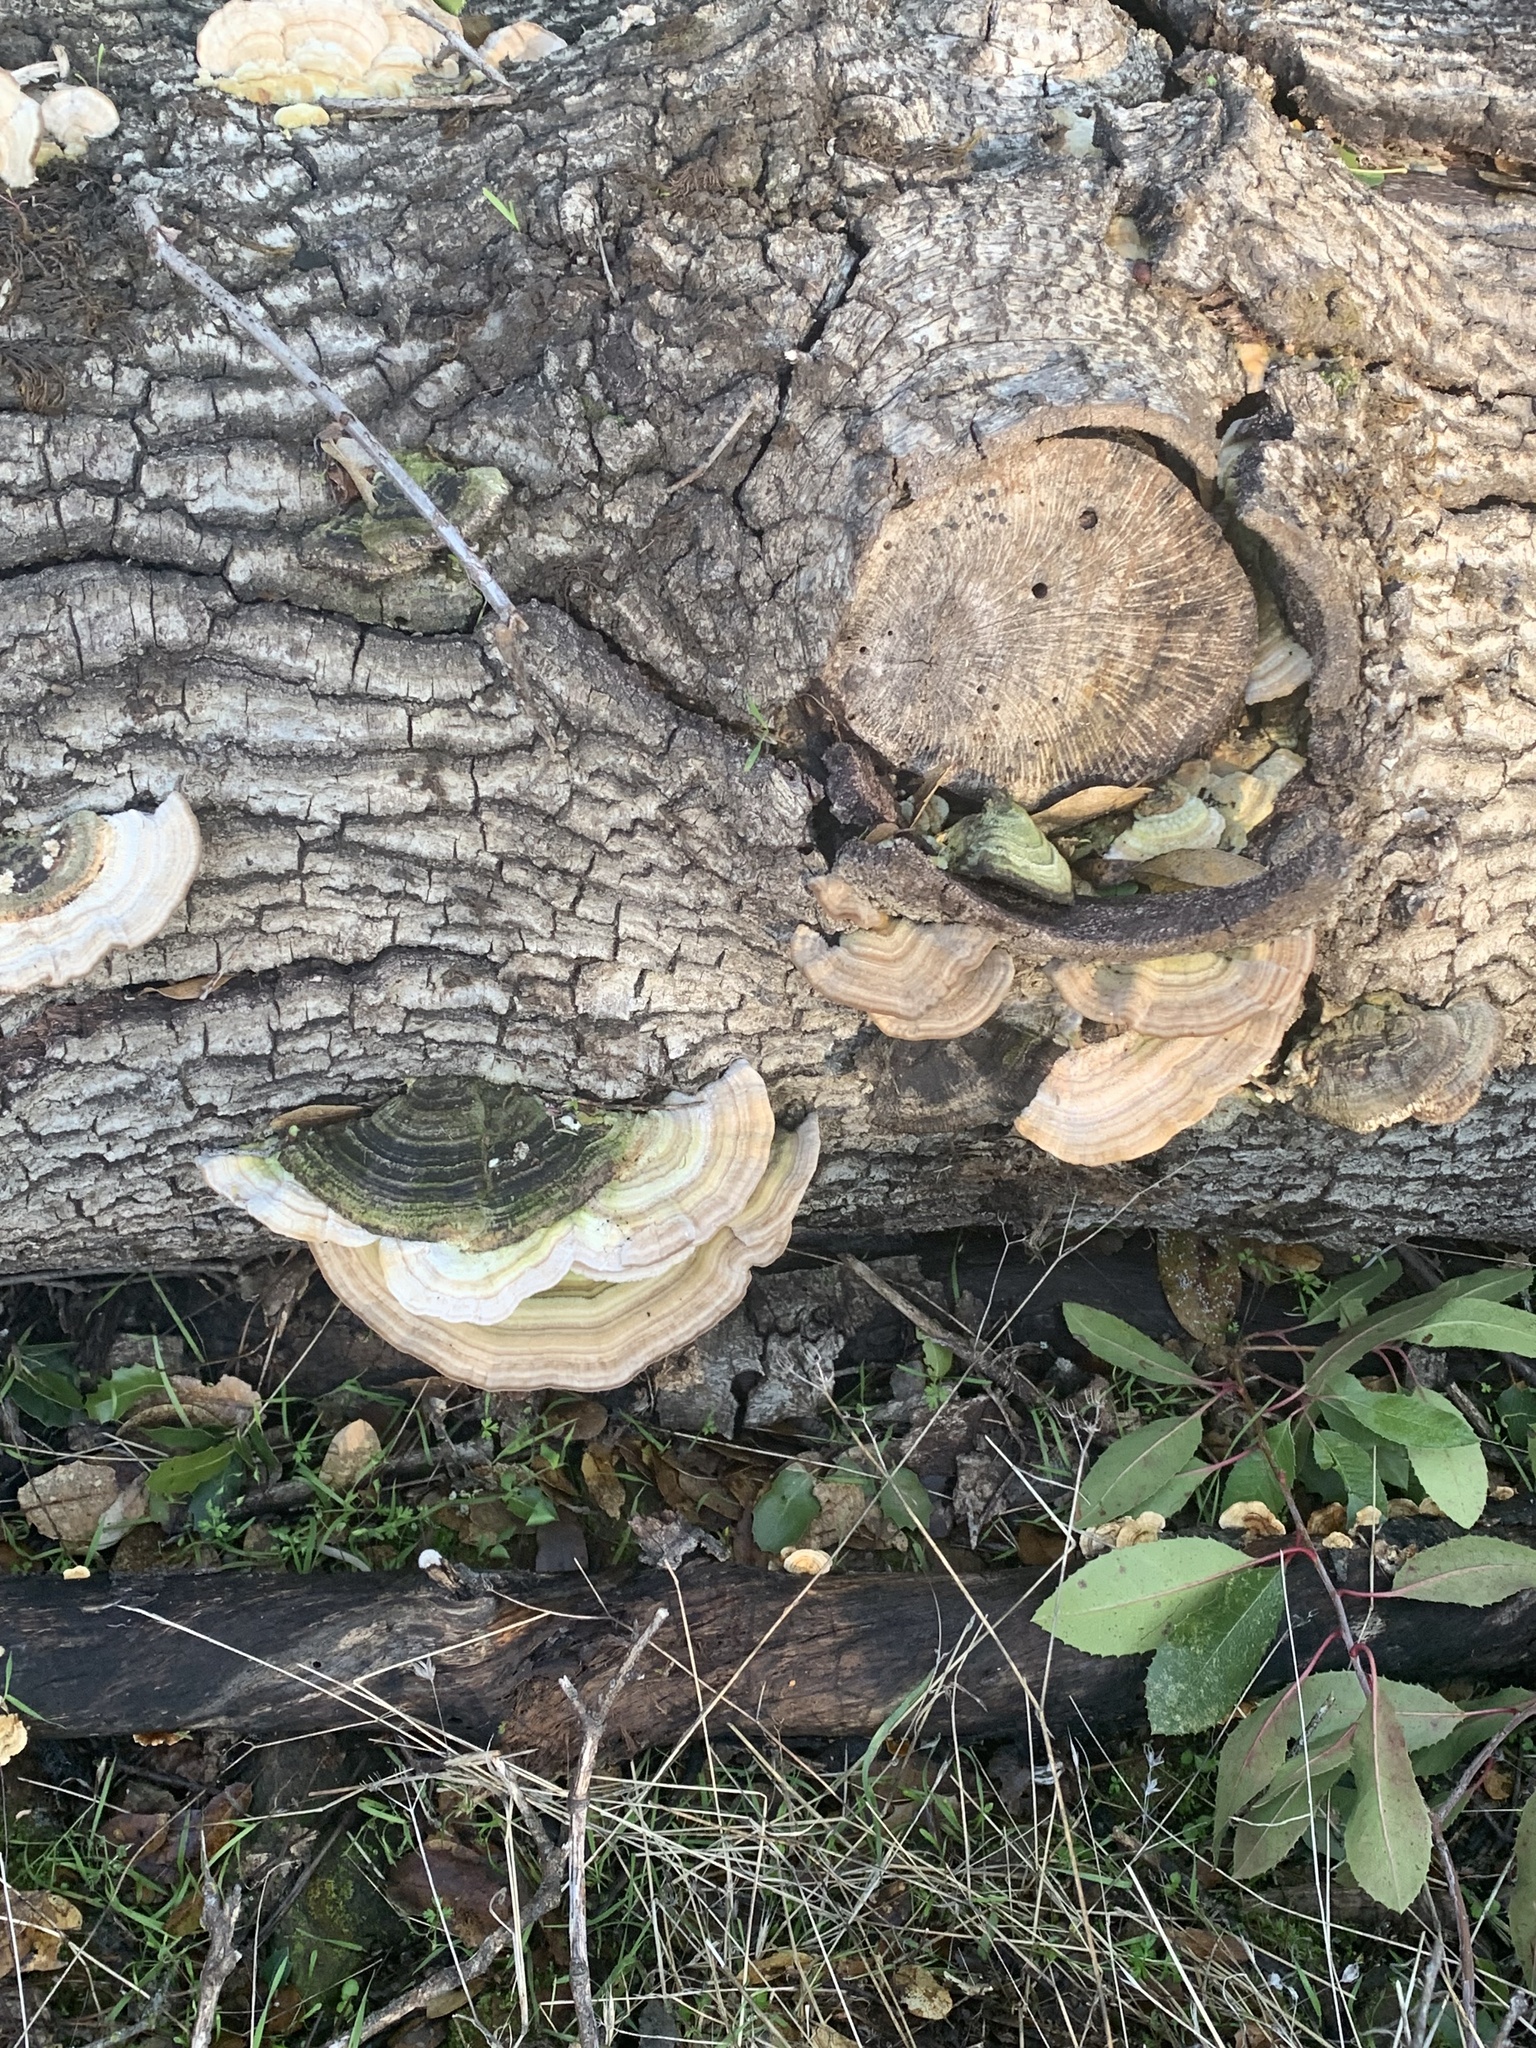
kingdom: Fungi
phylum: Basidiomycota
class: Agaricomycetes
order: Polyporales
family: Polyporaceae
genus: Lenzites
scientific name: Lenzites betulinus
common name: Birch mazegill
